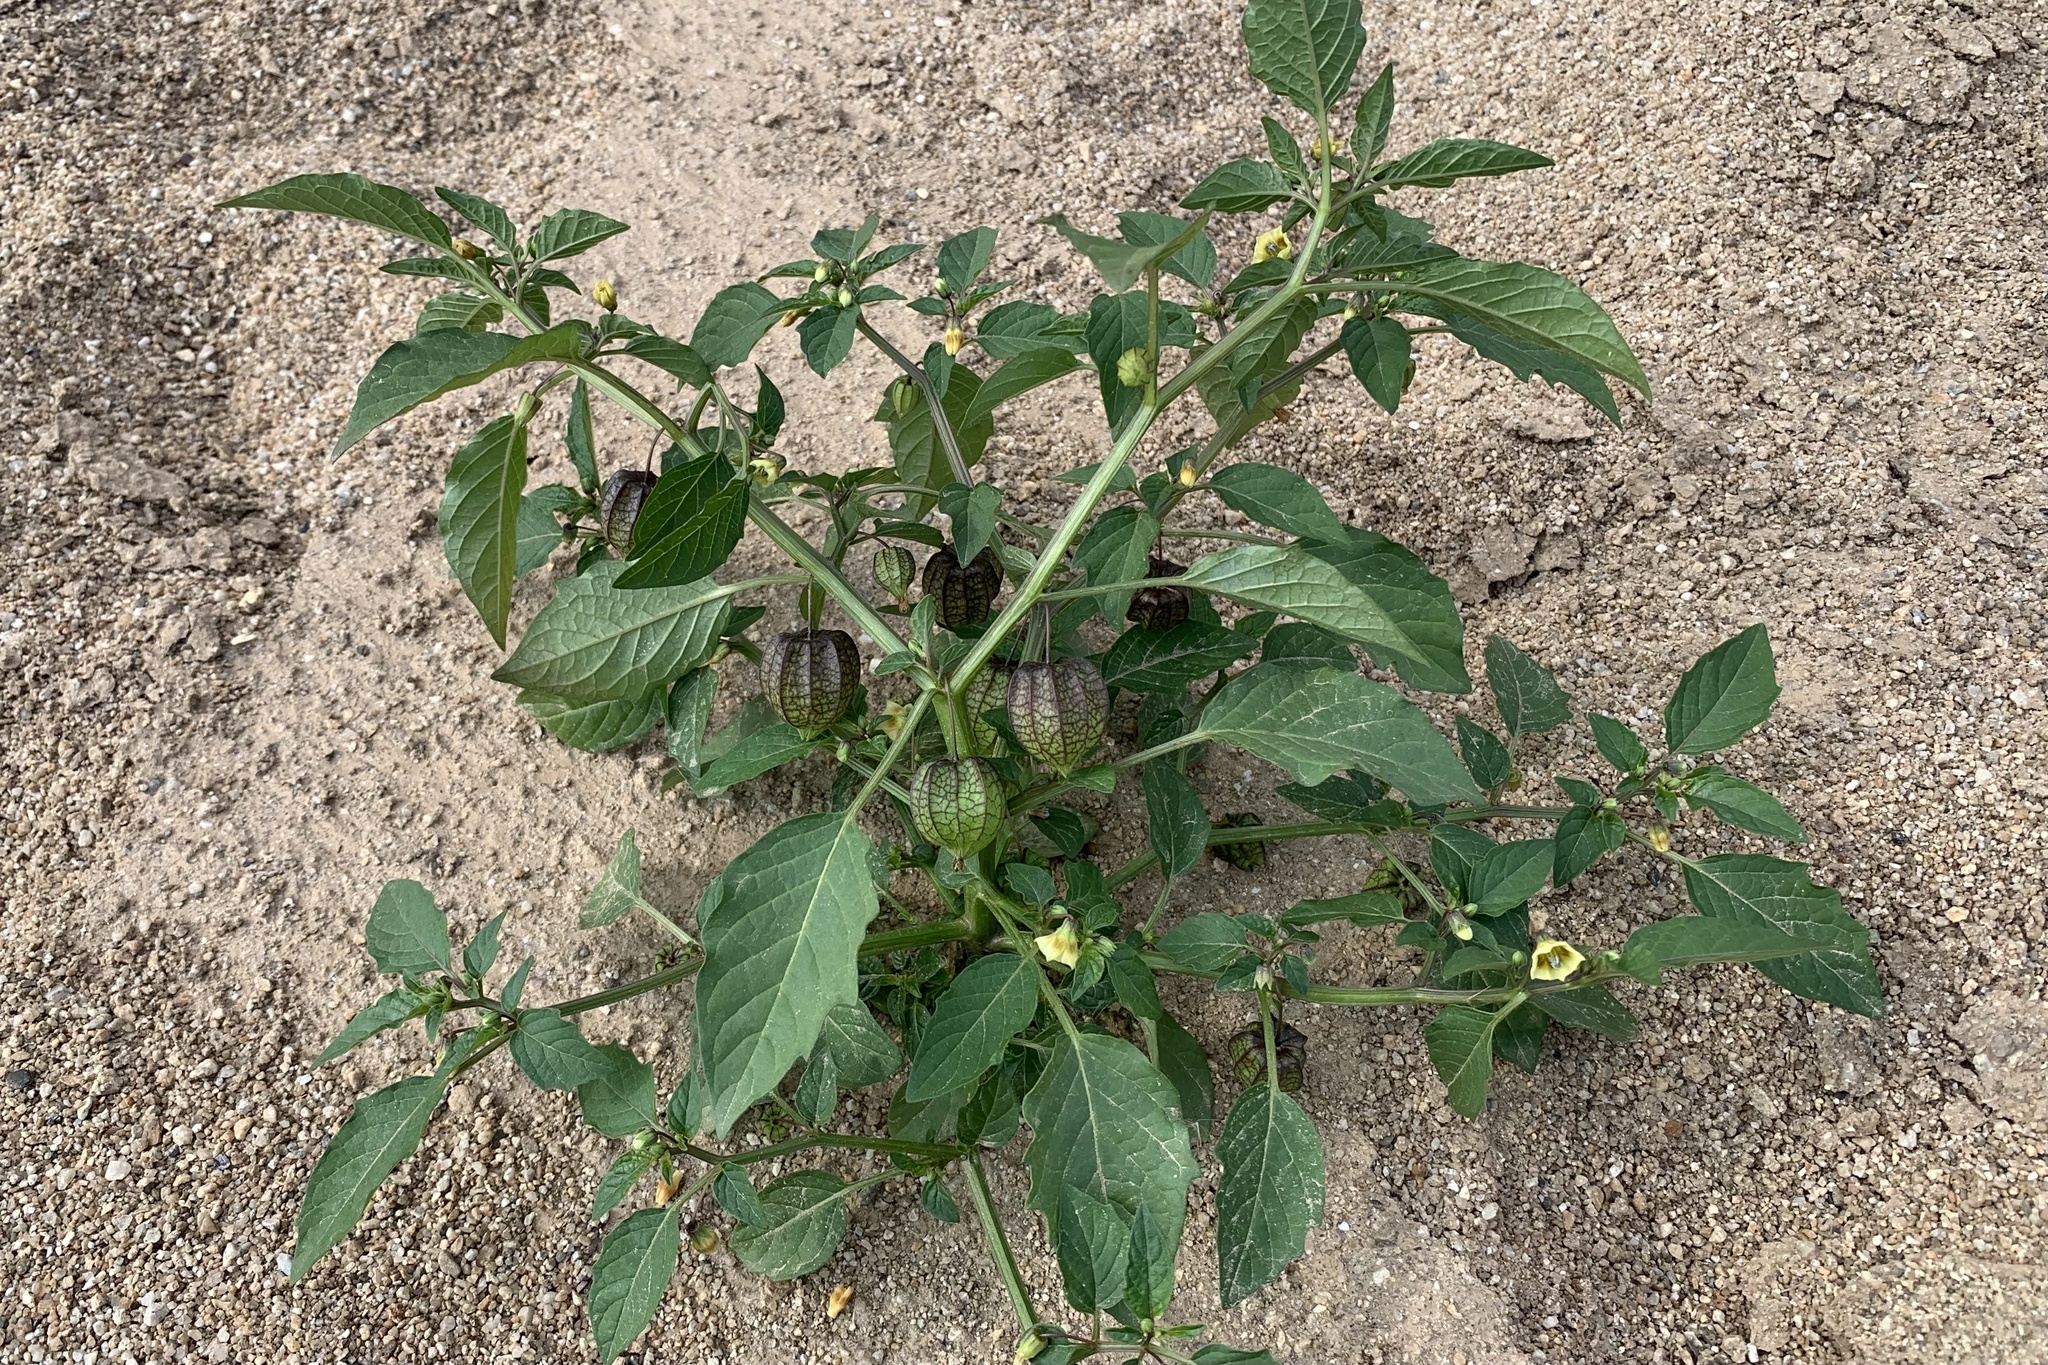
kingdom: Plantae
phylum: Tracheophyta
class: Magnoliopsida
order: Solanales
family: Solanaceae
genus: Physalis
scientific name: Physalis angulata
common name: Angular winter-cherry
